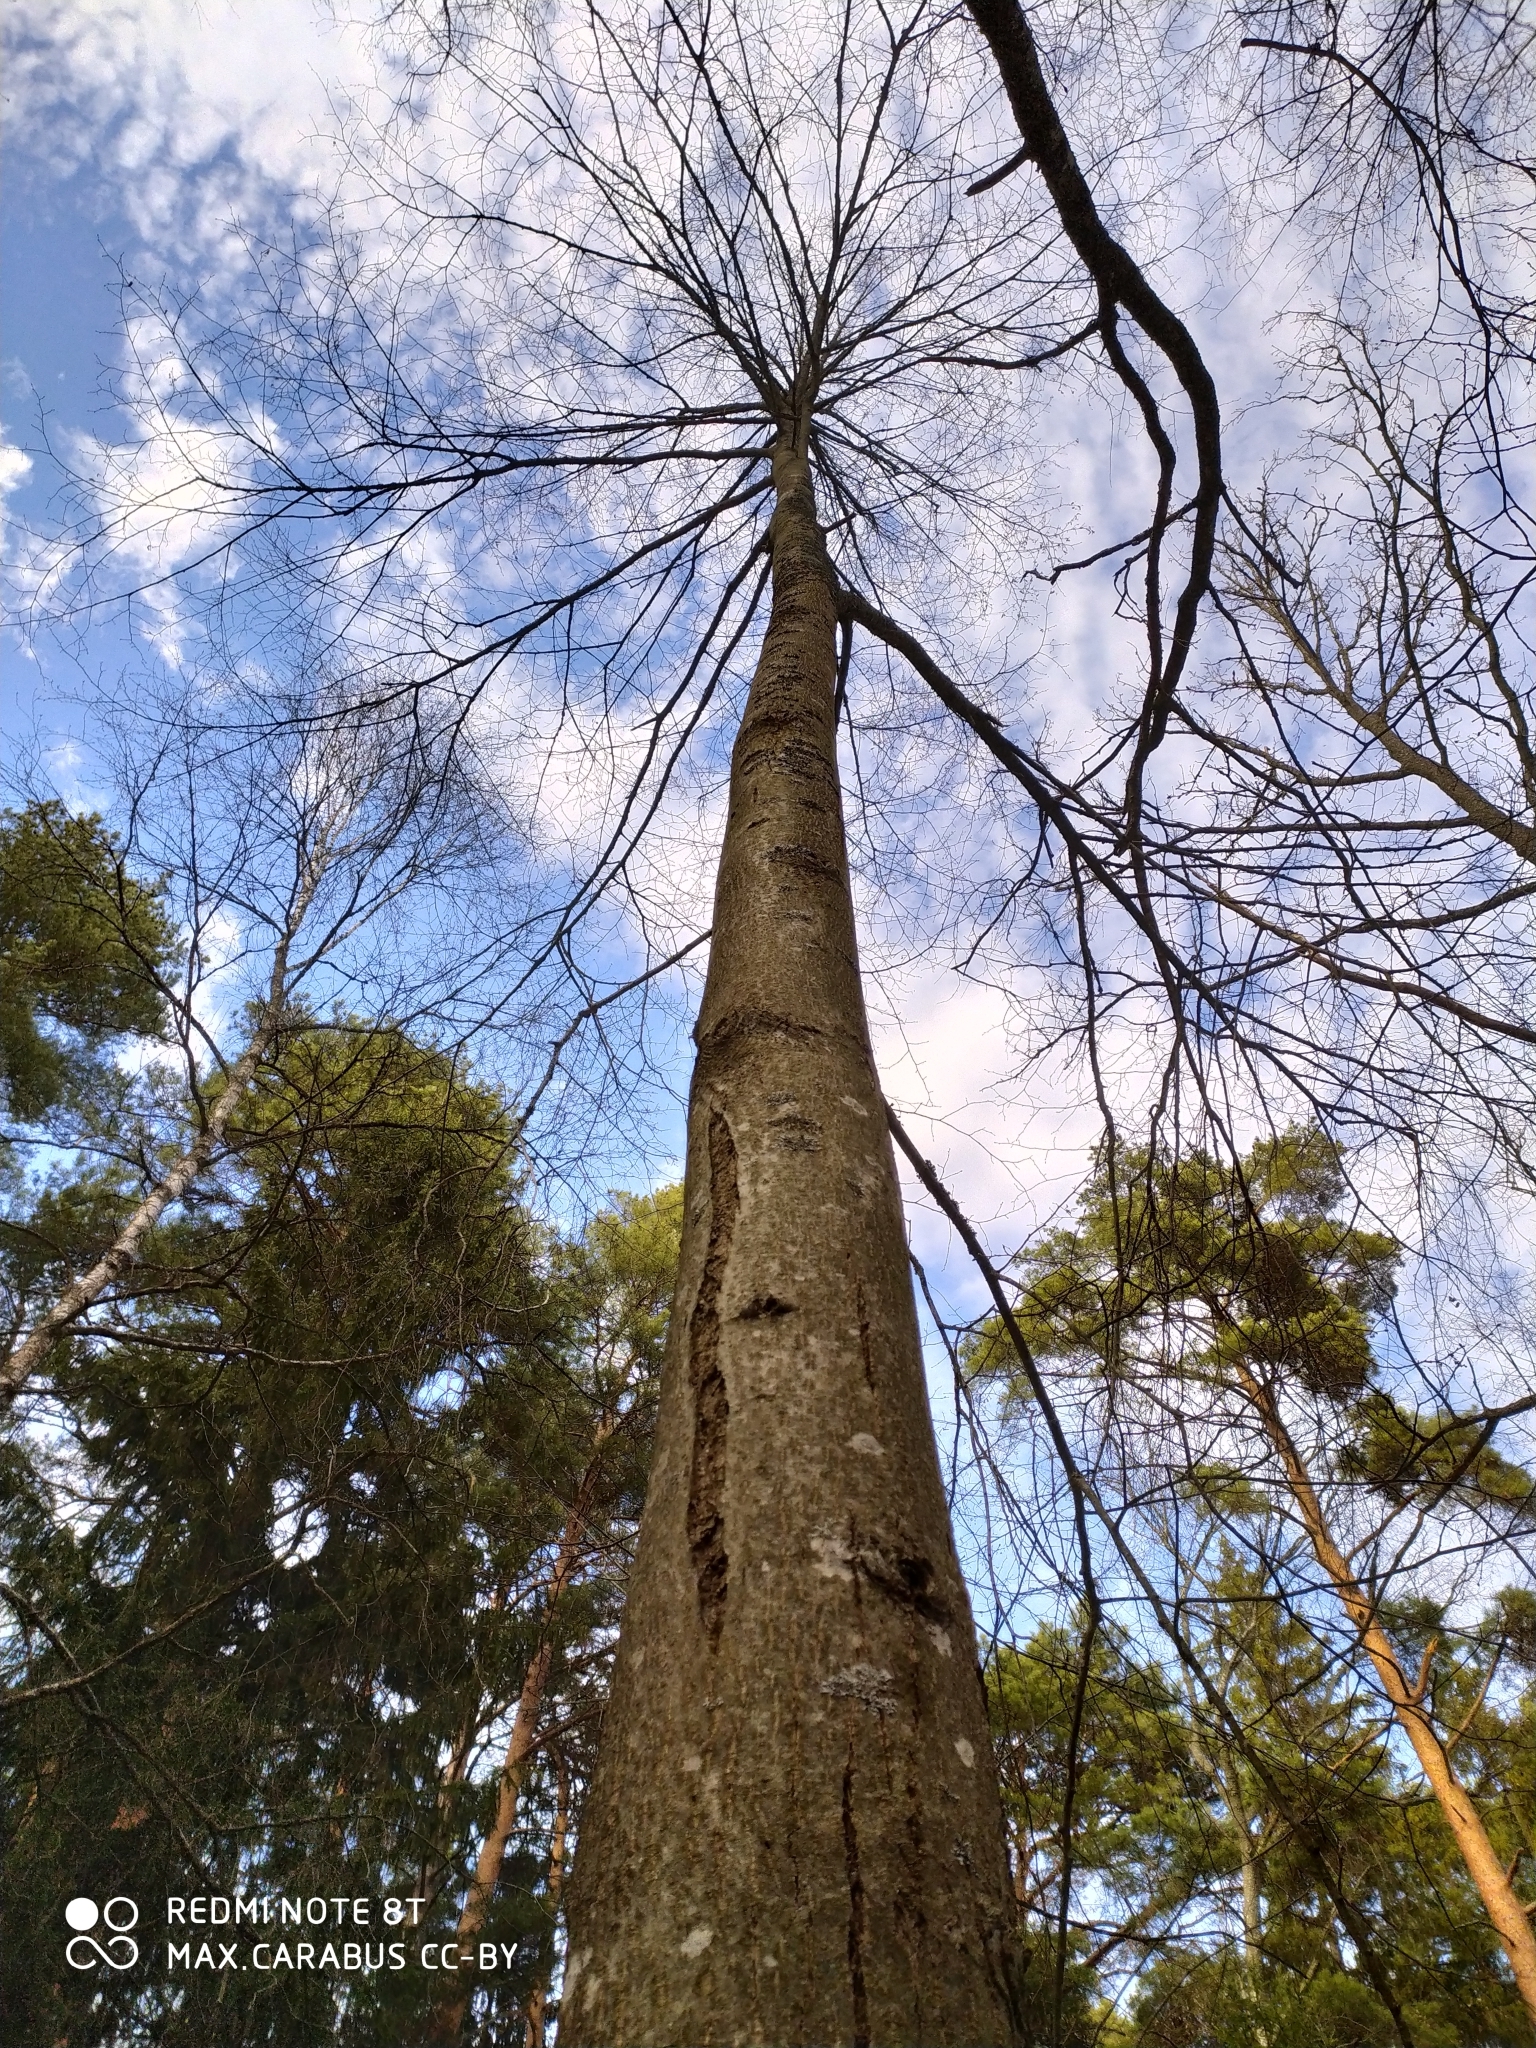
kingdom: Plantae
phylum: Tracheophyta
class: Magnoliopsida
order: Malvales
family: Malvaceae
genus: Tilia
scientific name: Tilia cordata
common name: Small-leaved lime
